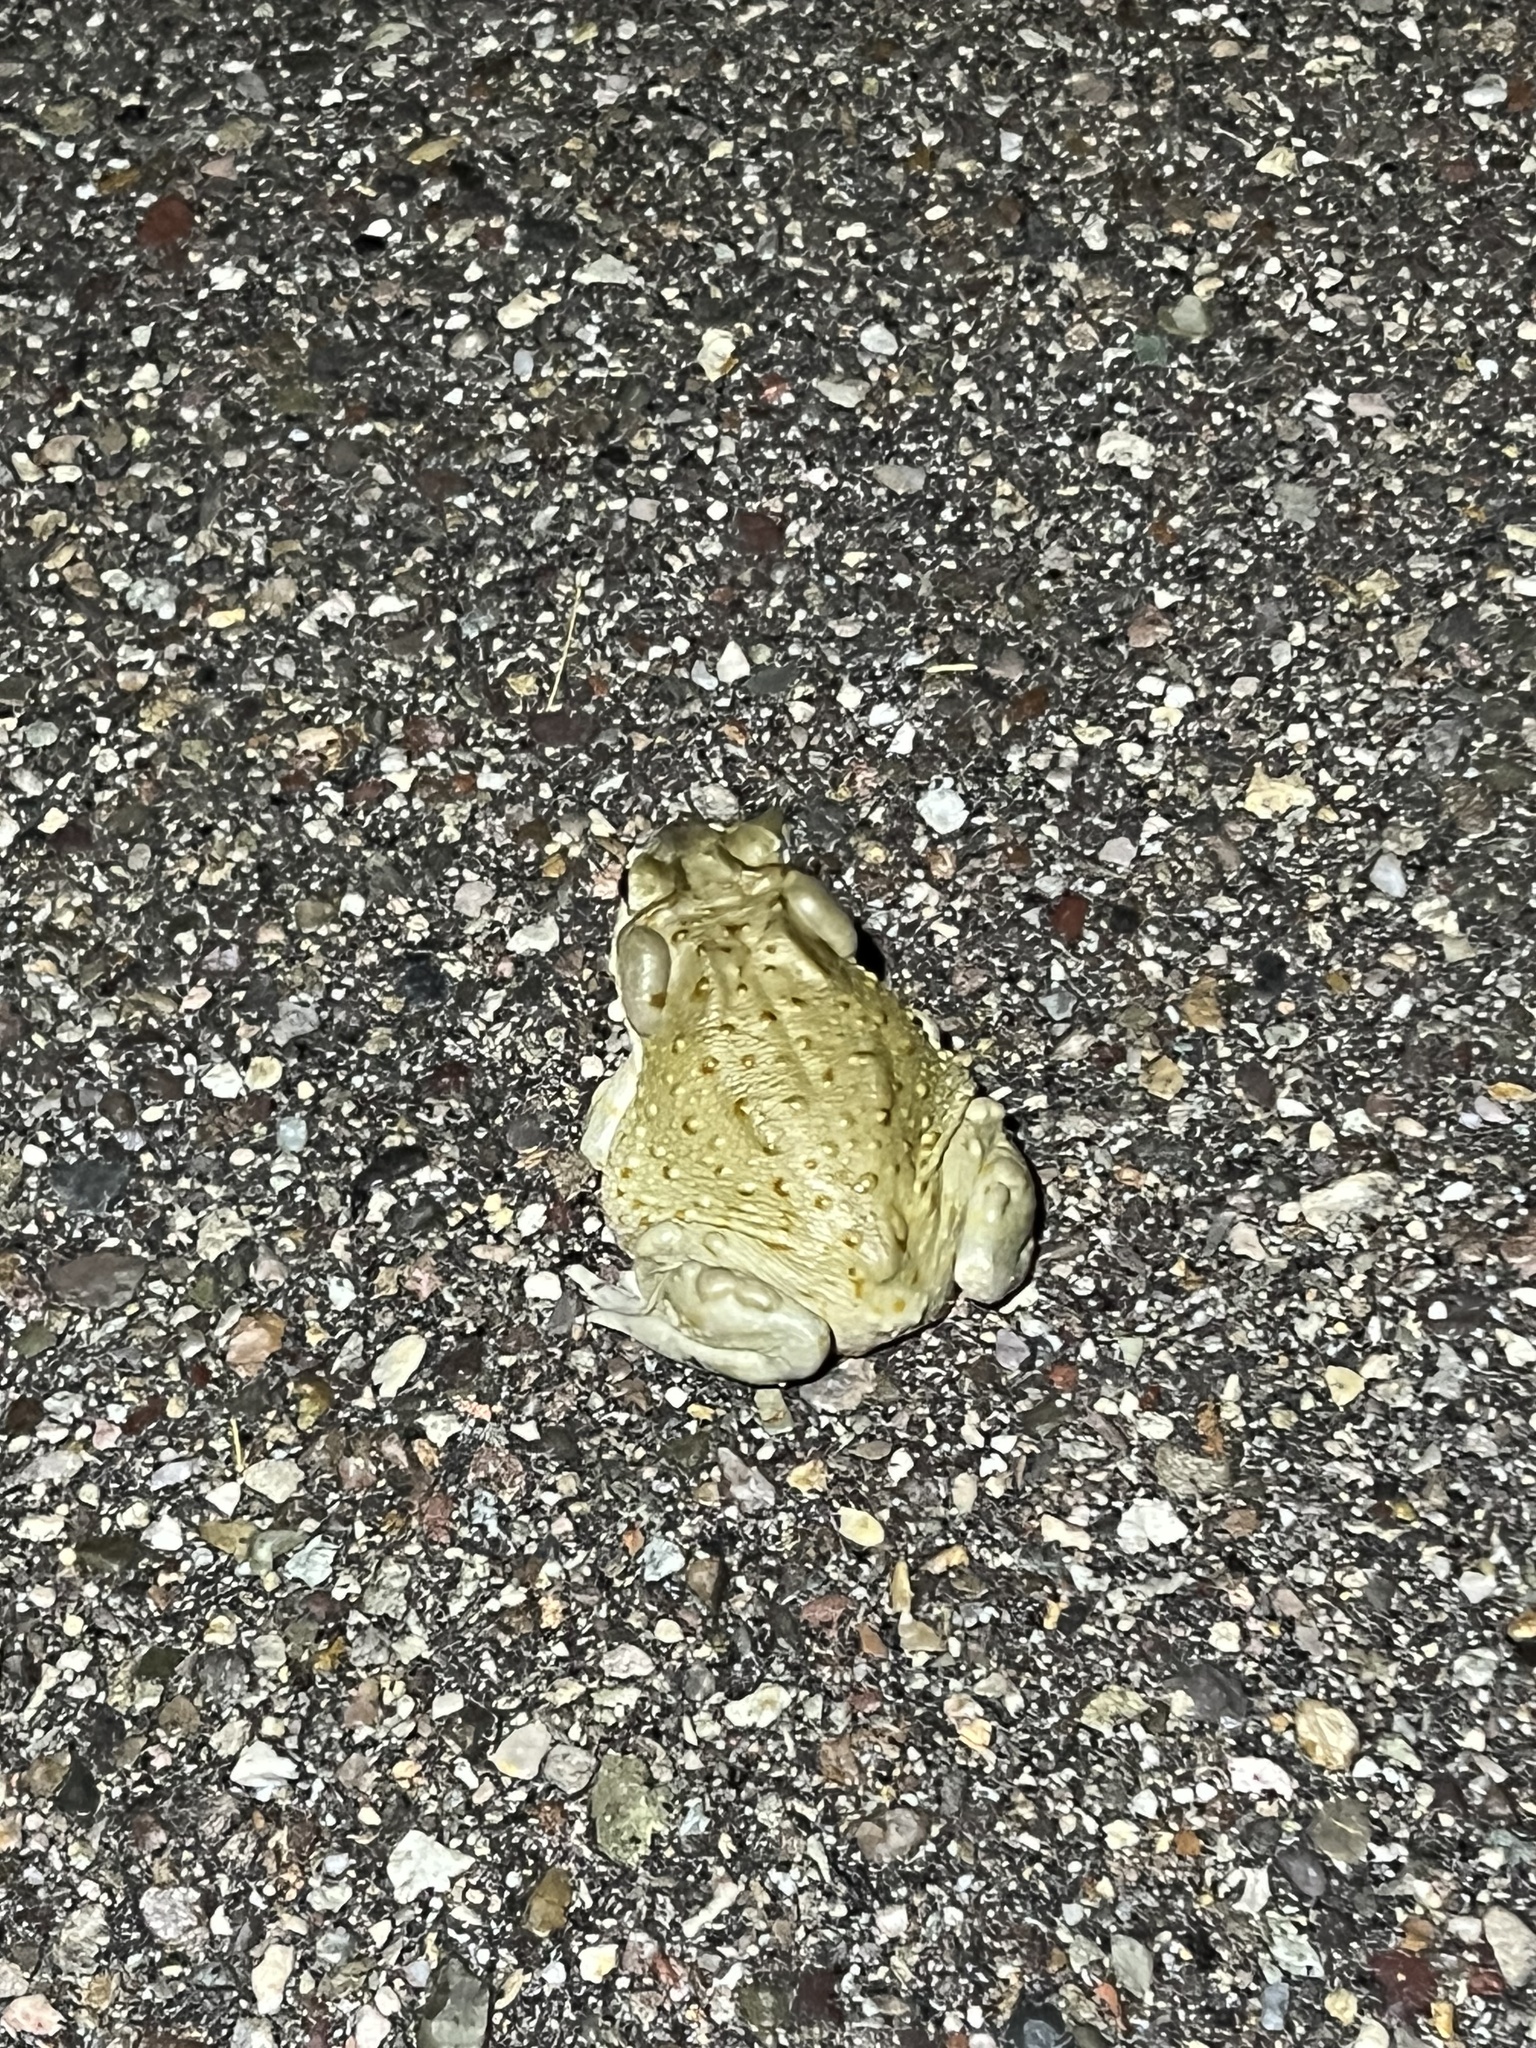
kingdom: Animalia
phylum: Chordata
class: Amphibia
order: Anura
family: Bufonidae
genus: Incilius
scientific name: Incilius alvarius
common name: Sonoran desert toad
